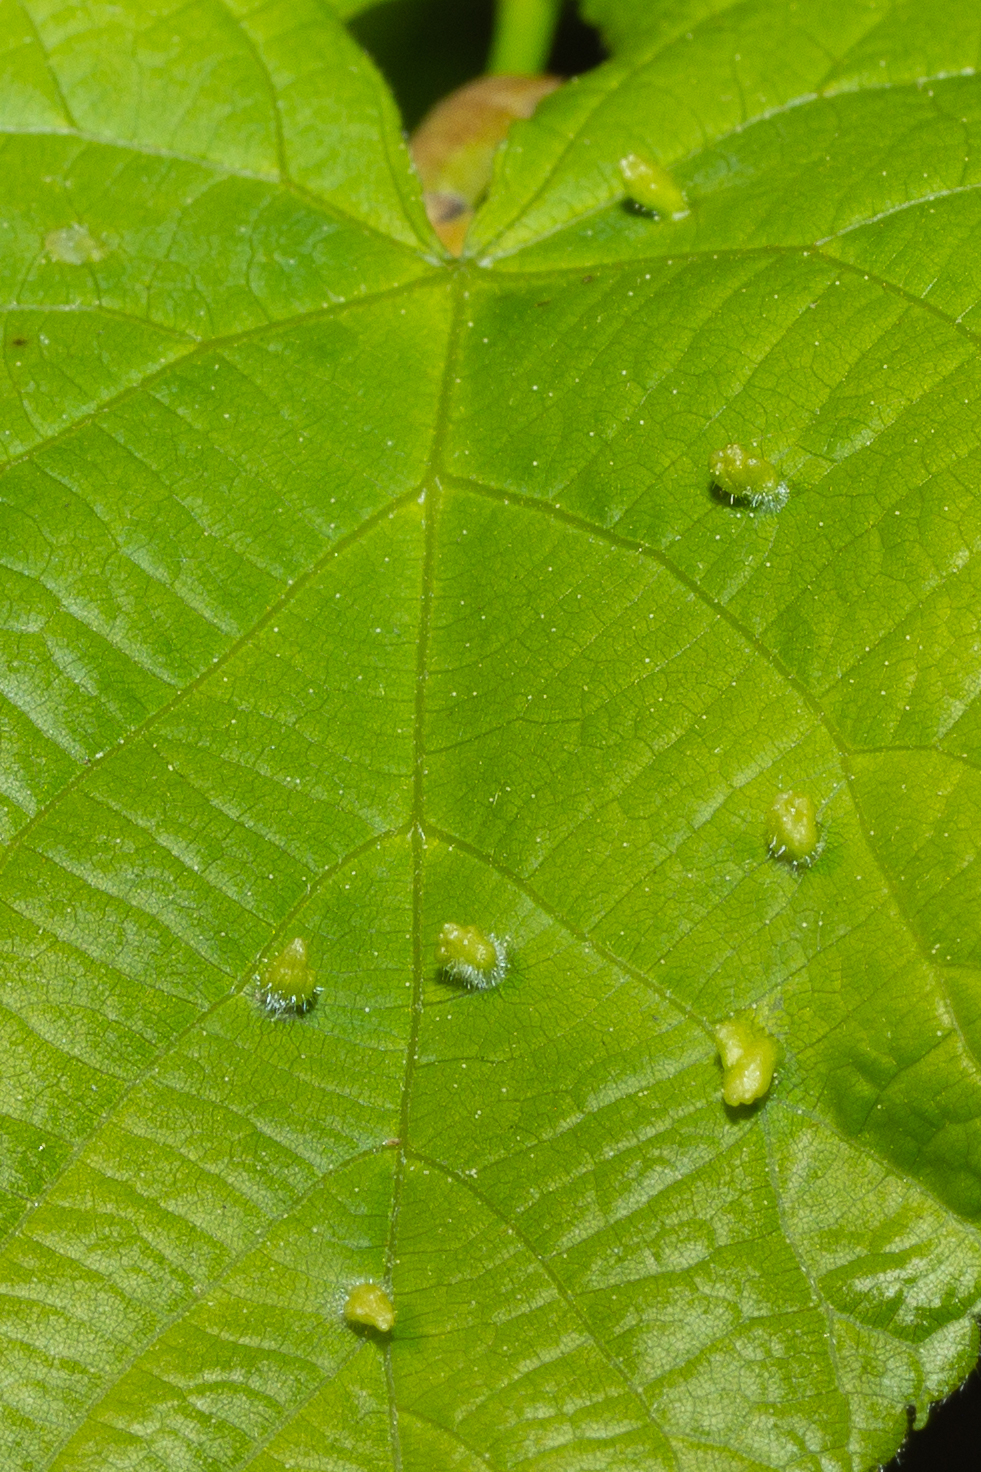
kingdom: Animalia
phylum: Arthropoda
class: Arachnida
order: Trombidiformes
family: Eriophyidae
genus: Eriophyes
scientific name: Eriophyes tiliae
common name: Red nail gall mite
